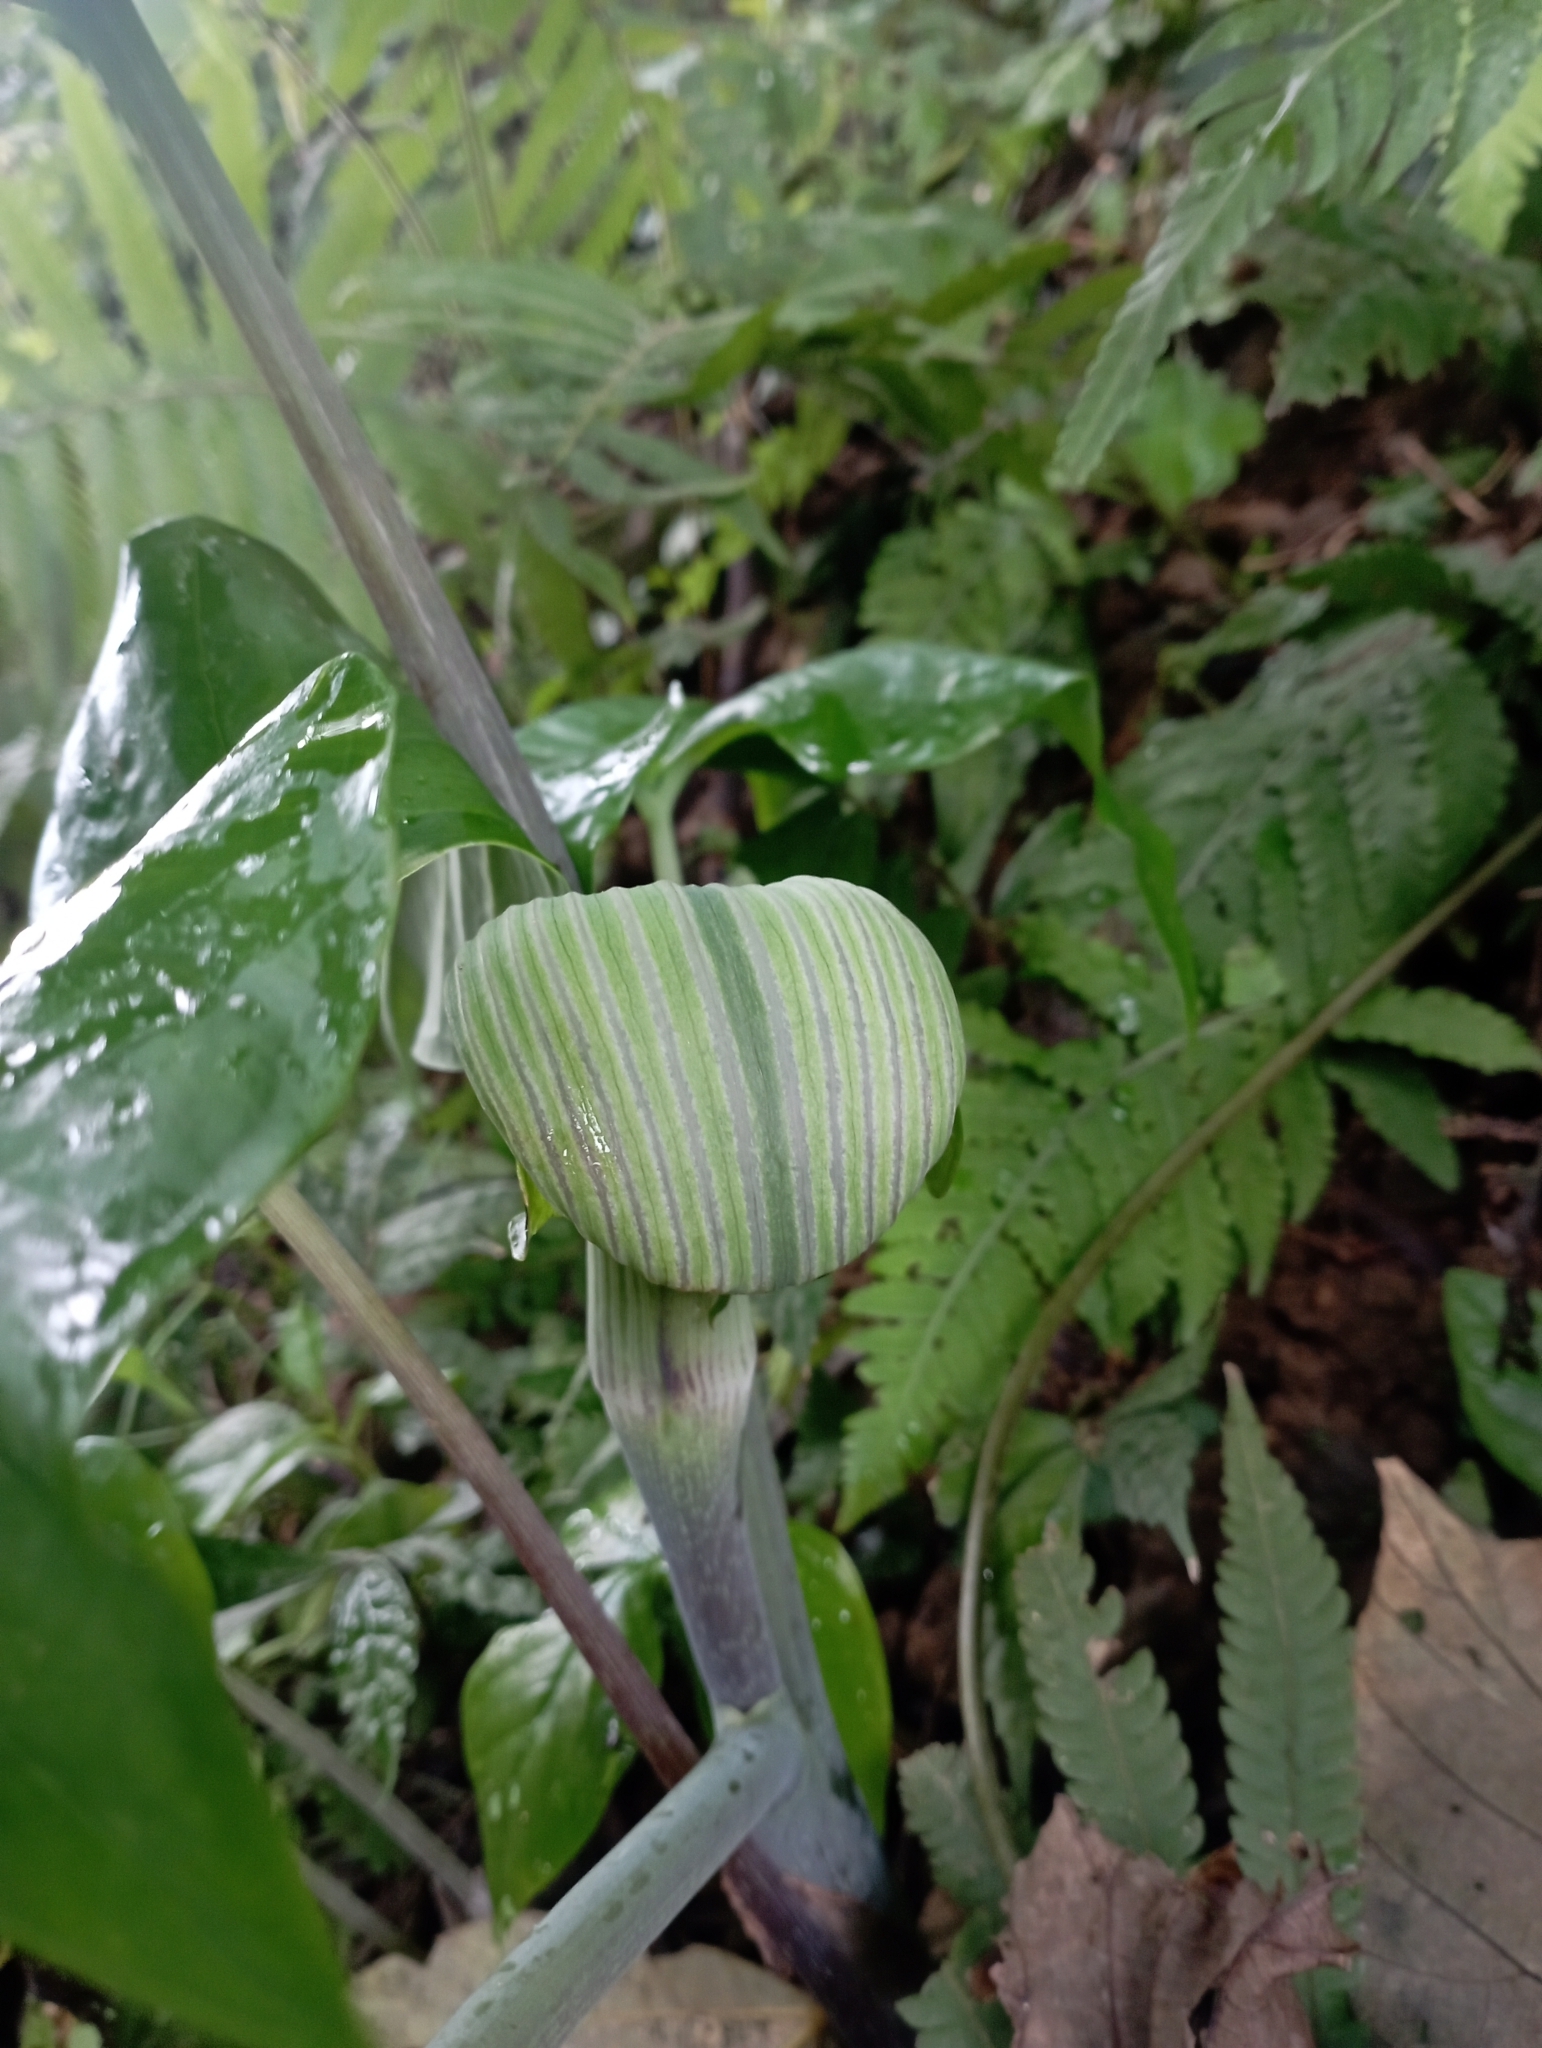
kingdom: Plantae
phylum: Tracheophyta
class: Liliopsida
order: Alismatales
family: Araceae
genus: Arisaema
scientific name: Arisaema ringens
